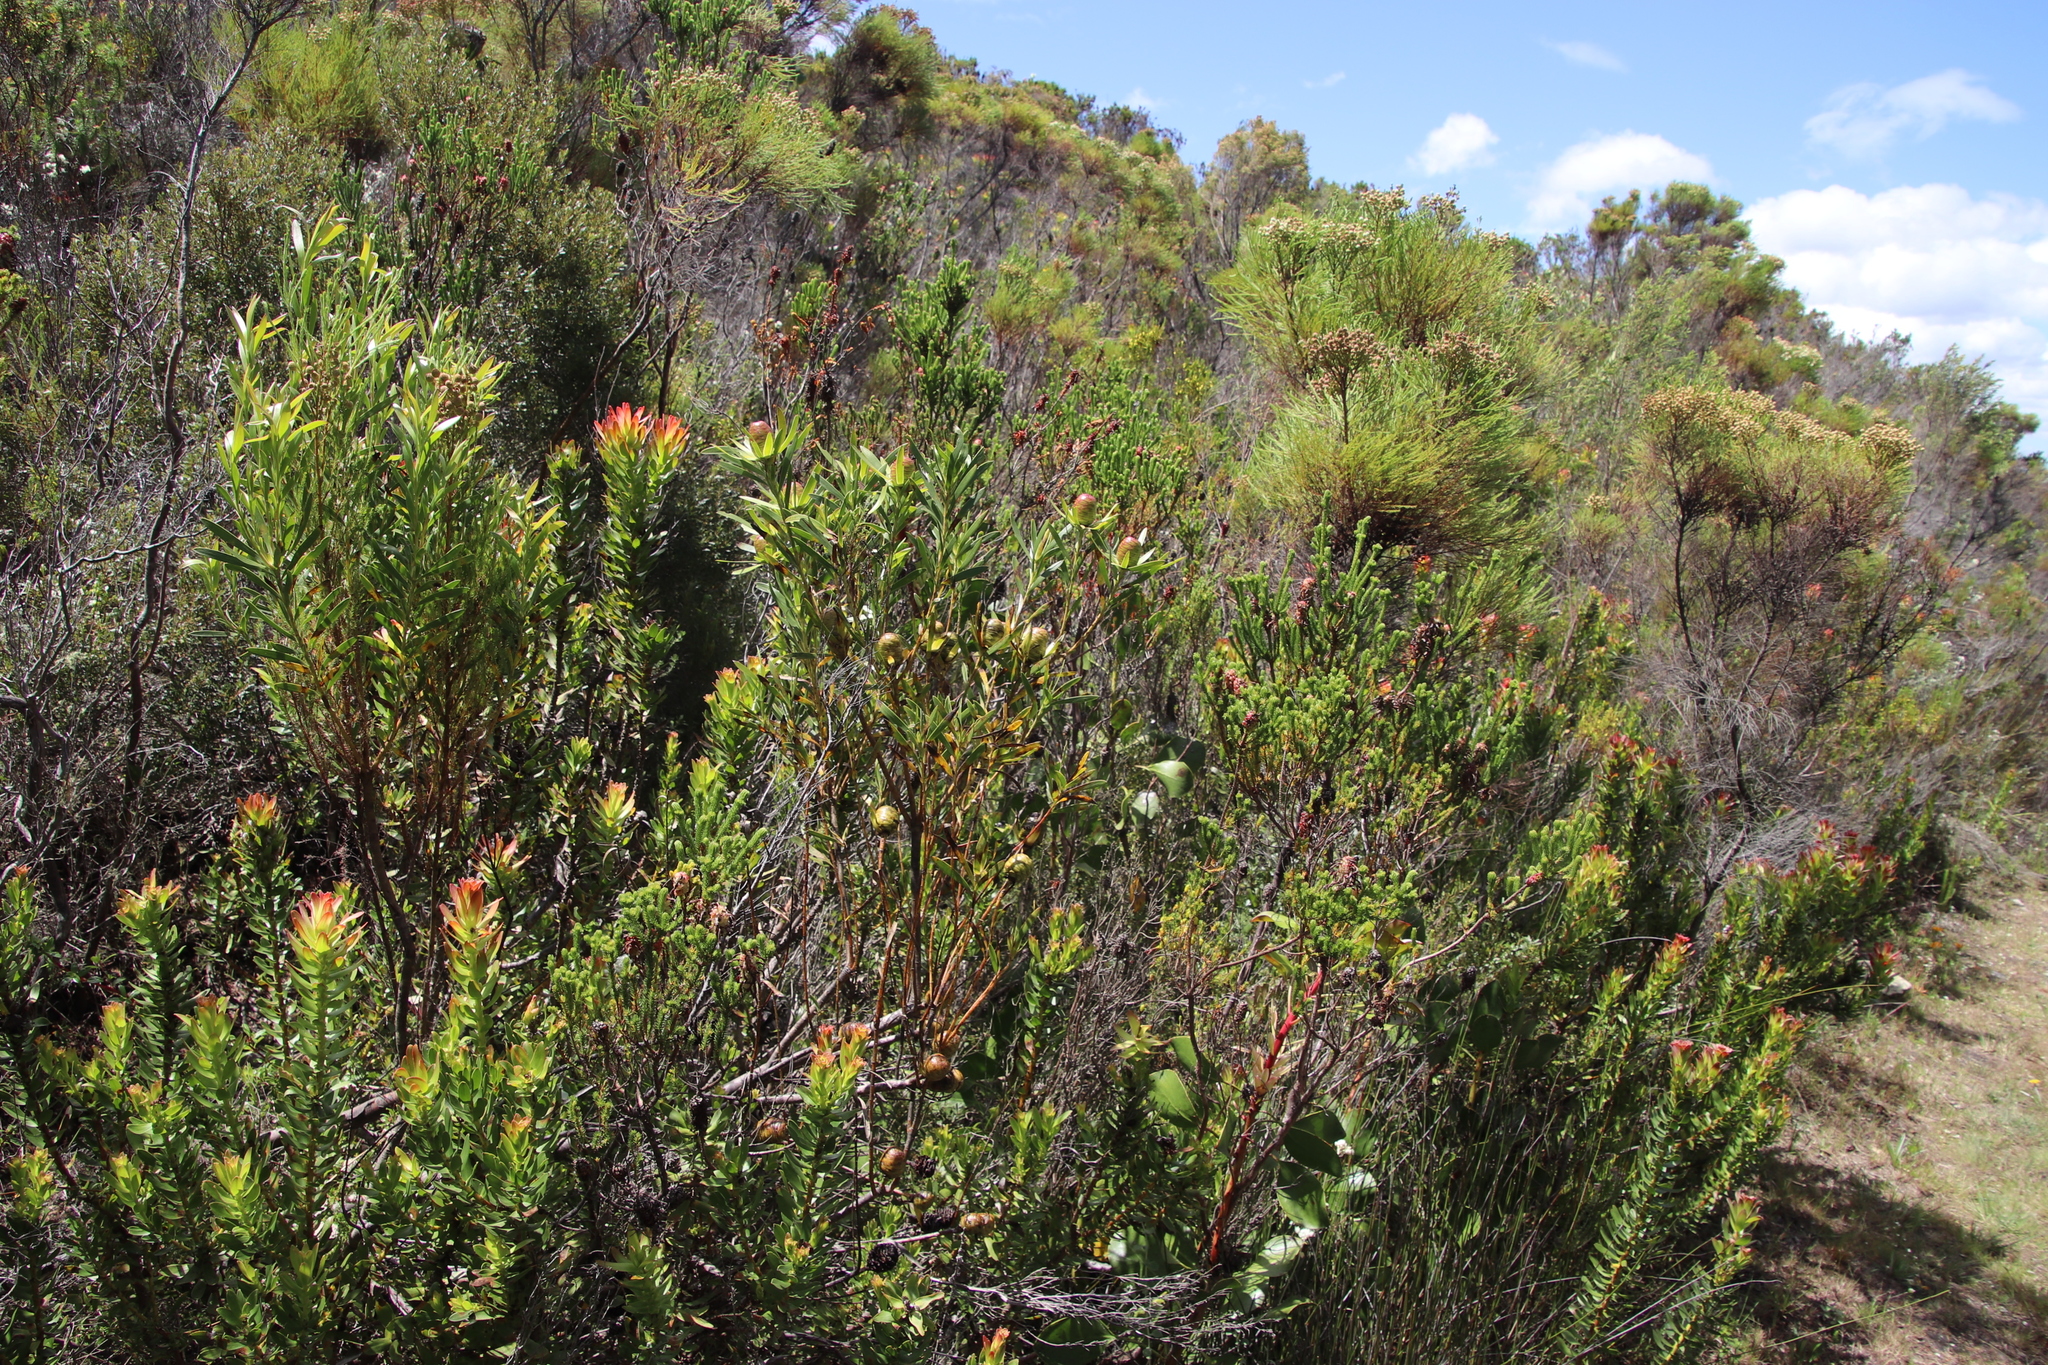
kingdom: Plantae
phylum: Tracheophyta
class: Magnoliopsida
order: Proteales
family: Proteaceae
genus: Leucadendron
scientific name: Leucadendron spissifolium
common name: Spear-leaf conebush
